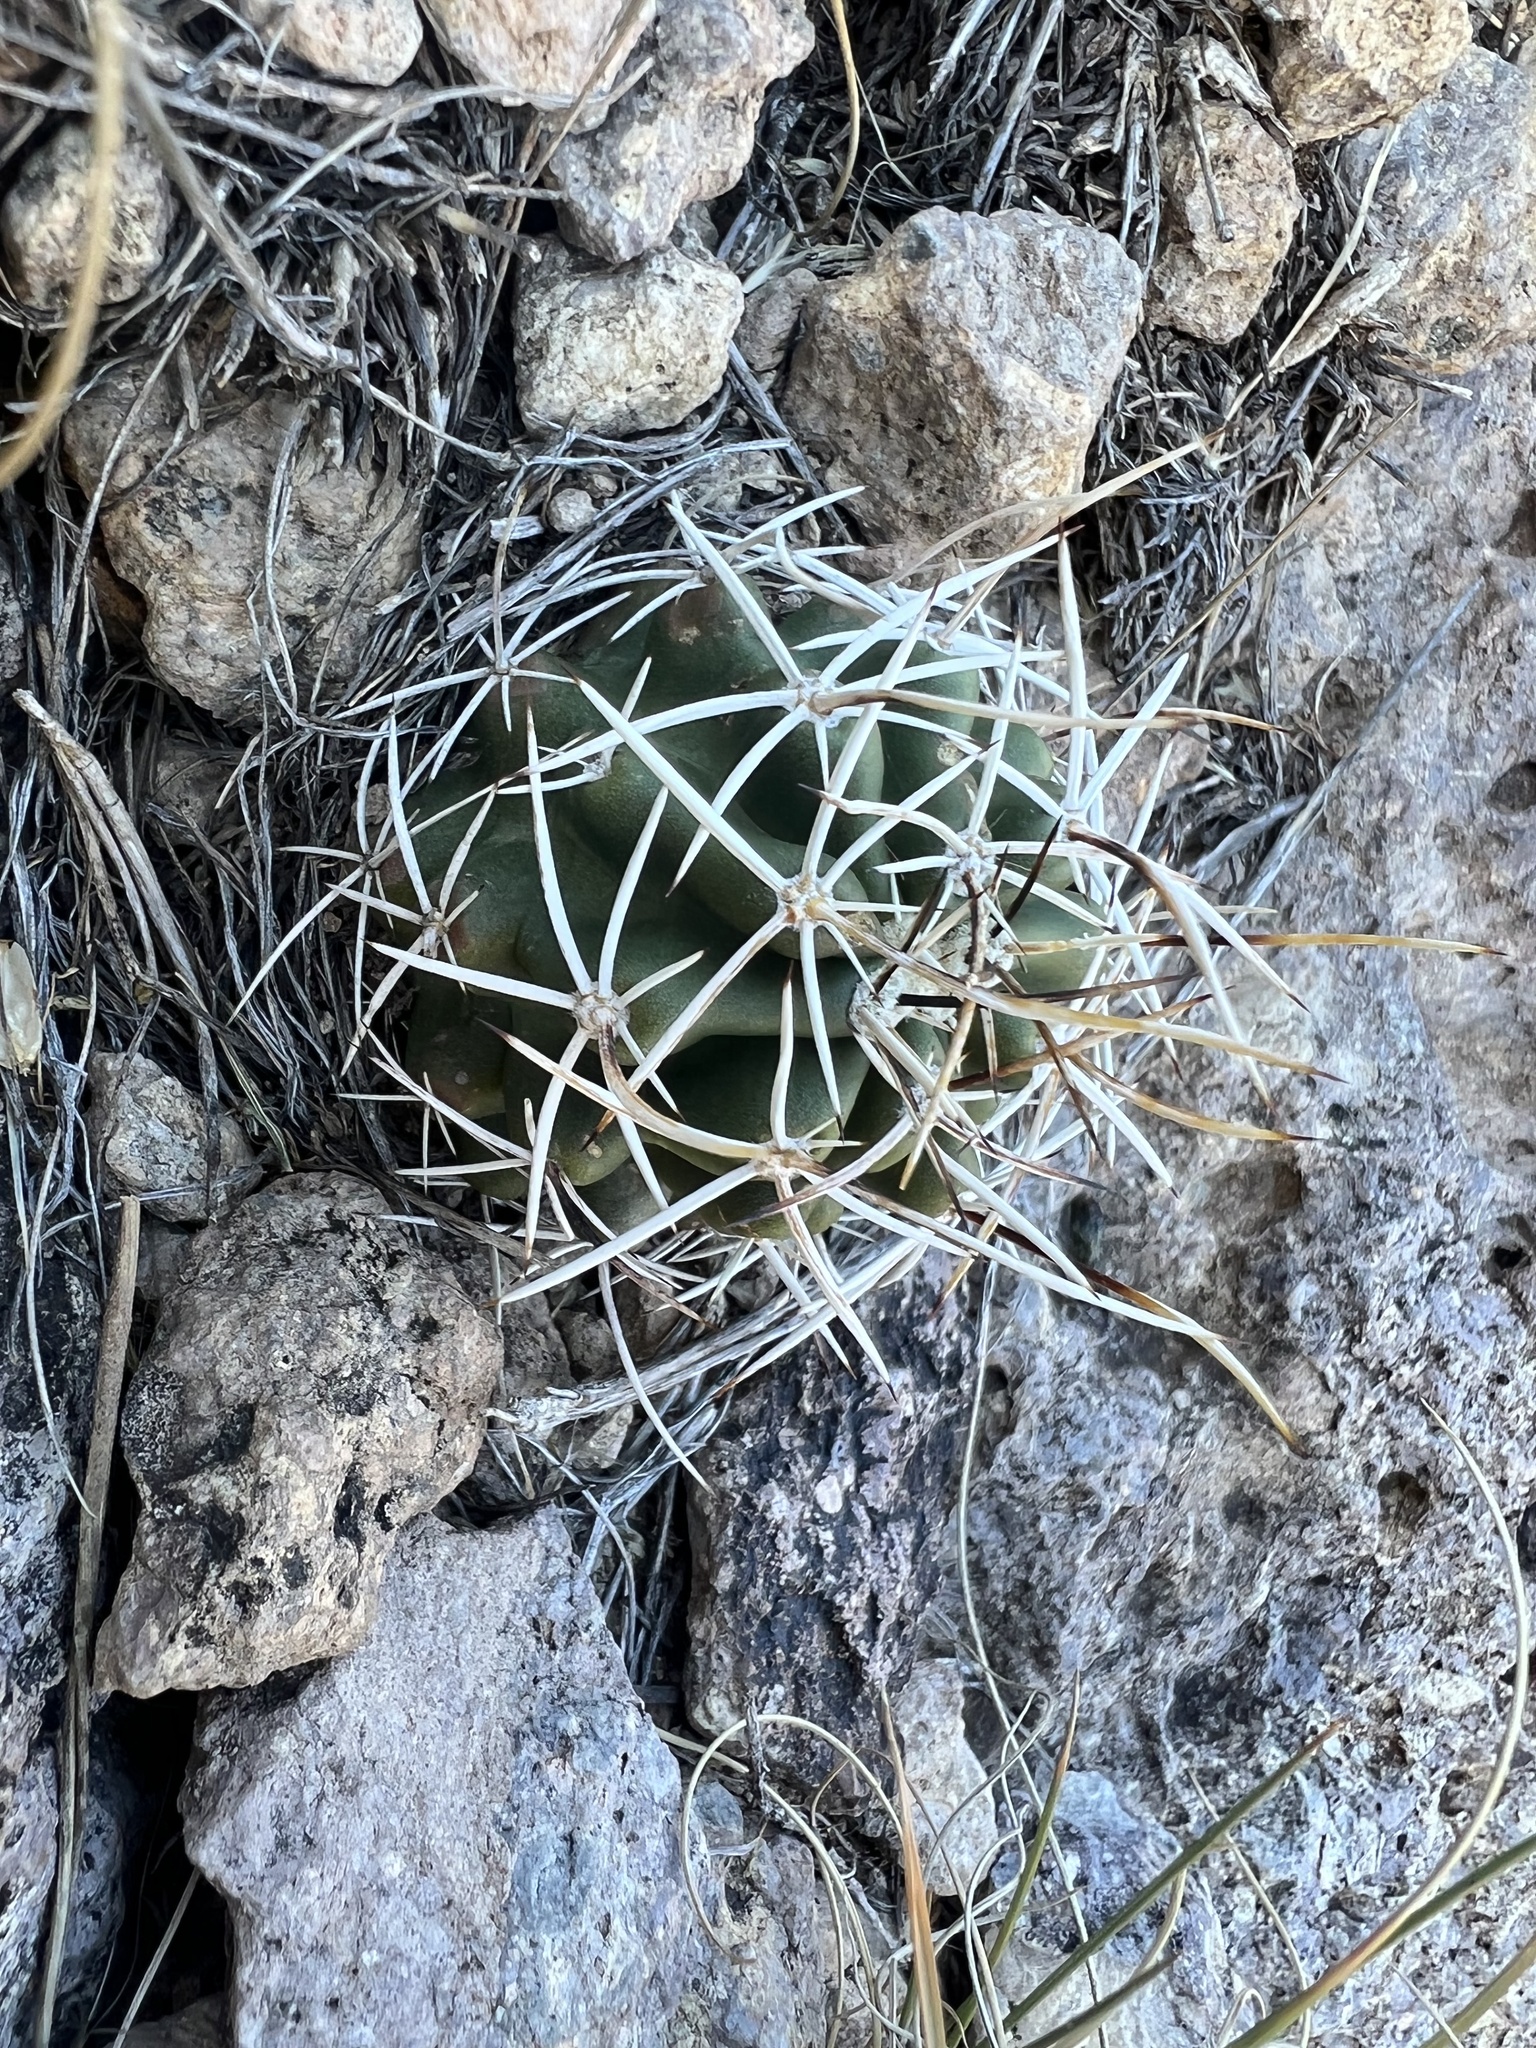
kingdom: Plantae
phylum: Tracheophyta
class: Magnoliopsida
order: Caryophyllales
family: Cactaceae
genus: Echinocereus
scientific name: Echinocereus fendleri
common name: Fendler's hedgehog cactus
